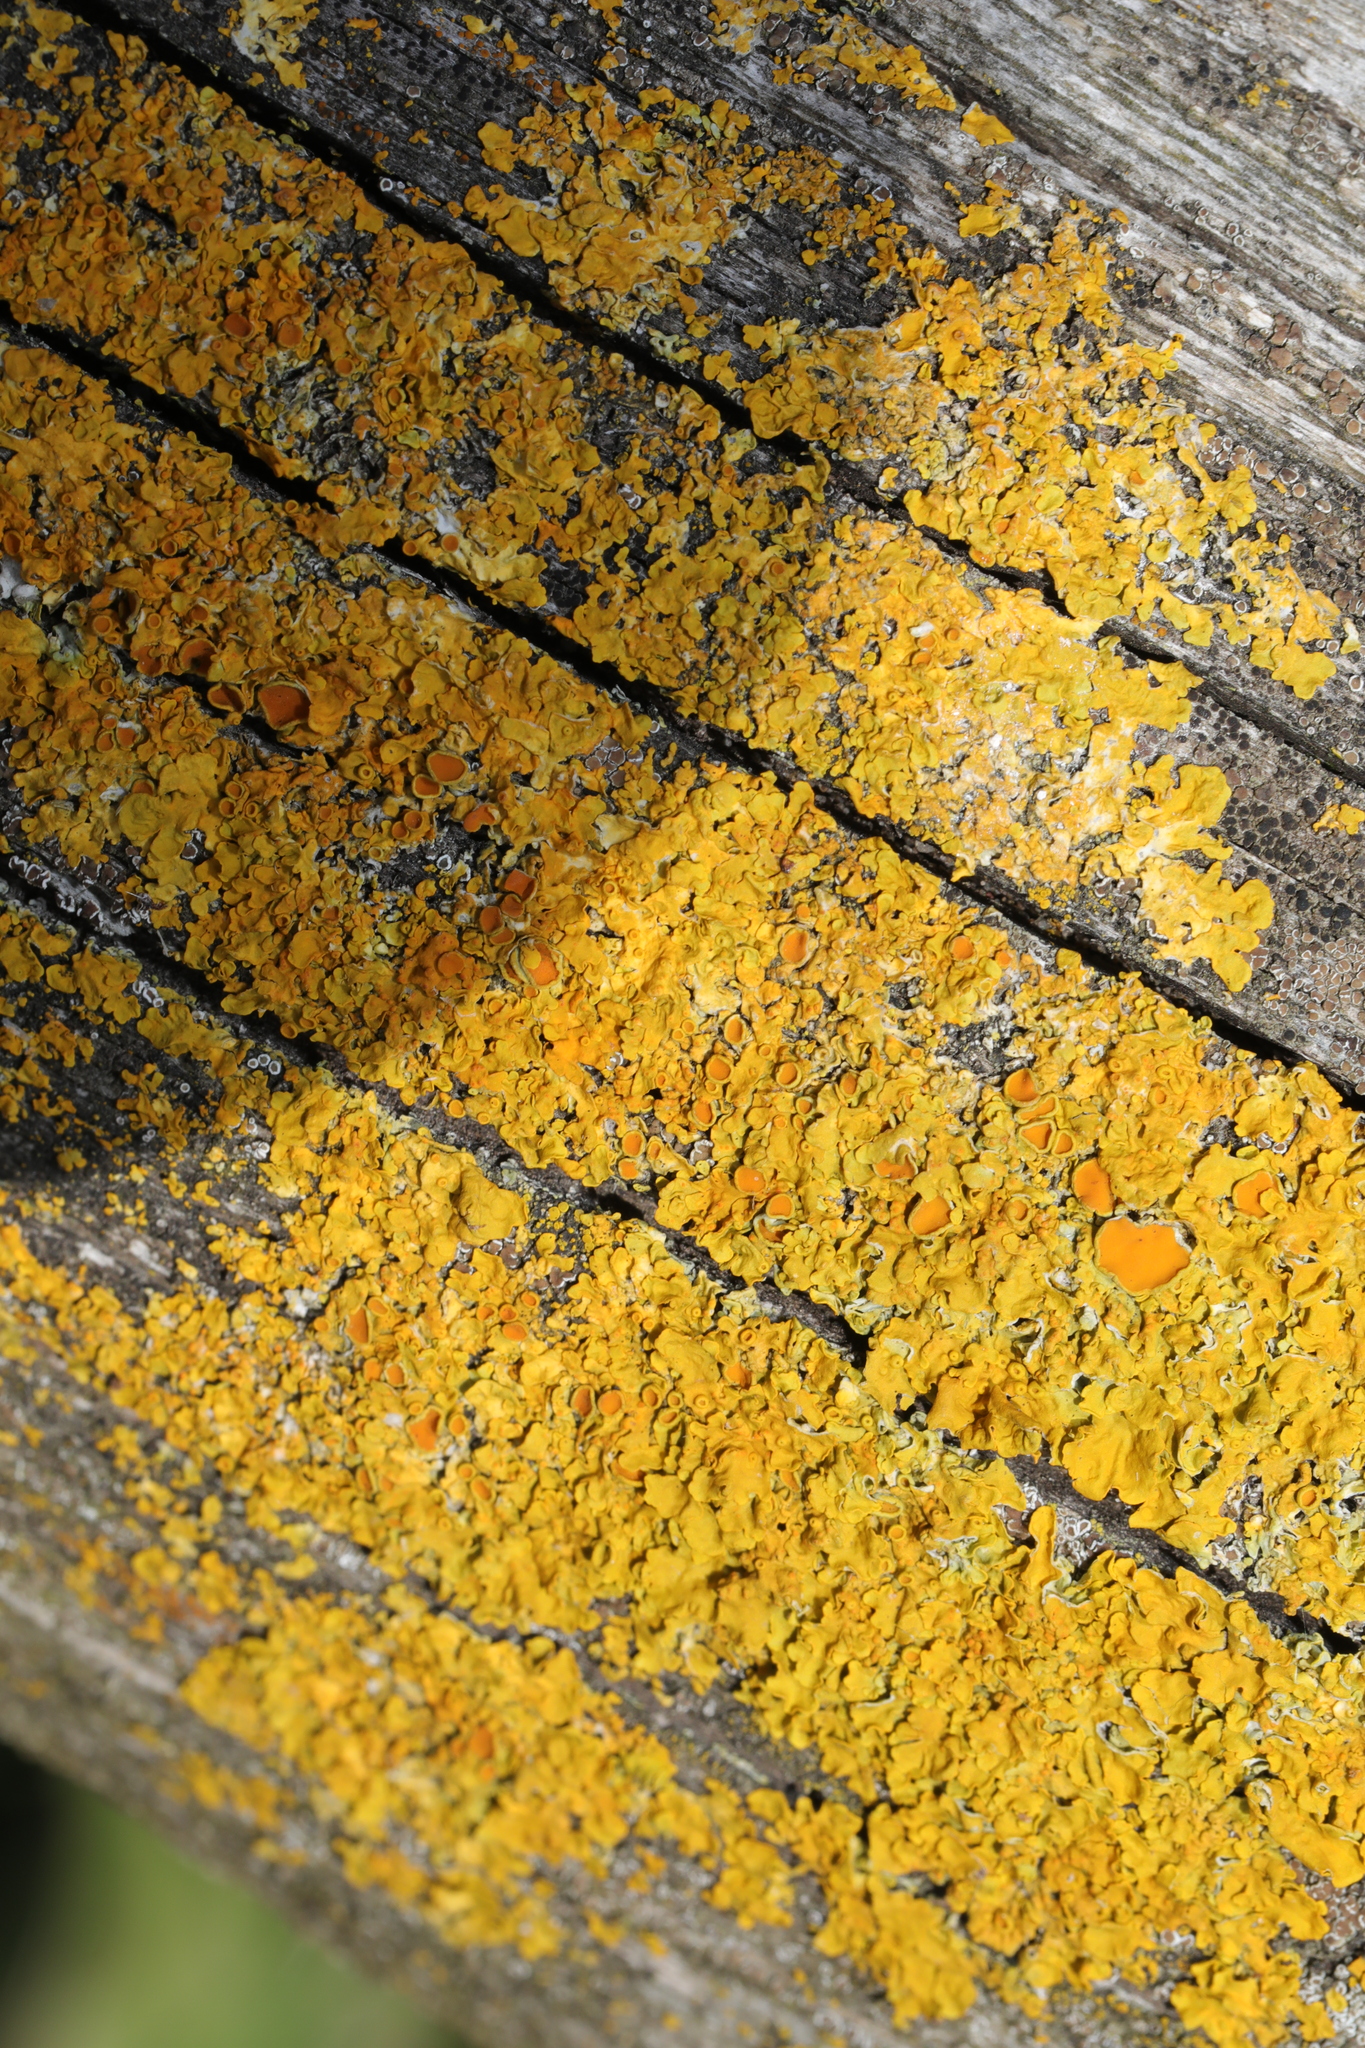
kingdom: Fungi
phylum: Ascomycota
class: Lecanoromycetes
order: Teloschistales
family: Teloschistaceae
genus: Xanthoria
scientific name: Xanthoria parietina
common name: Common orange lichen
